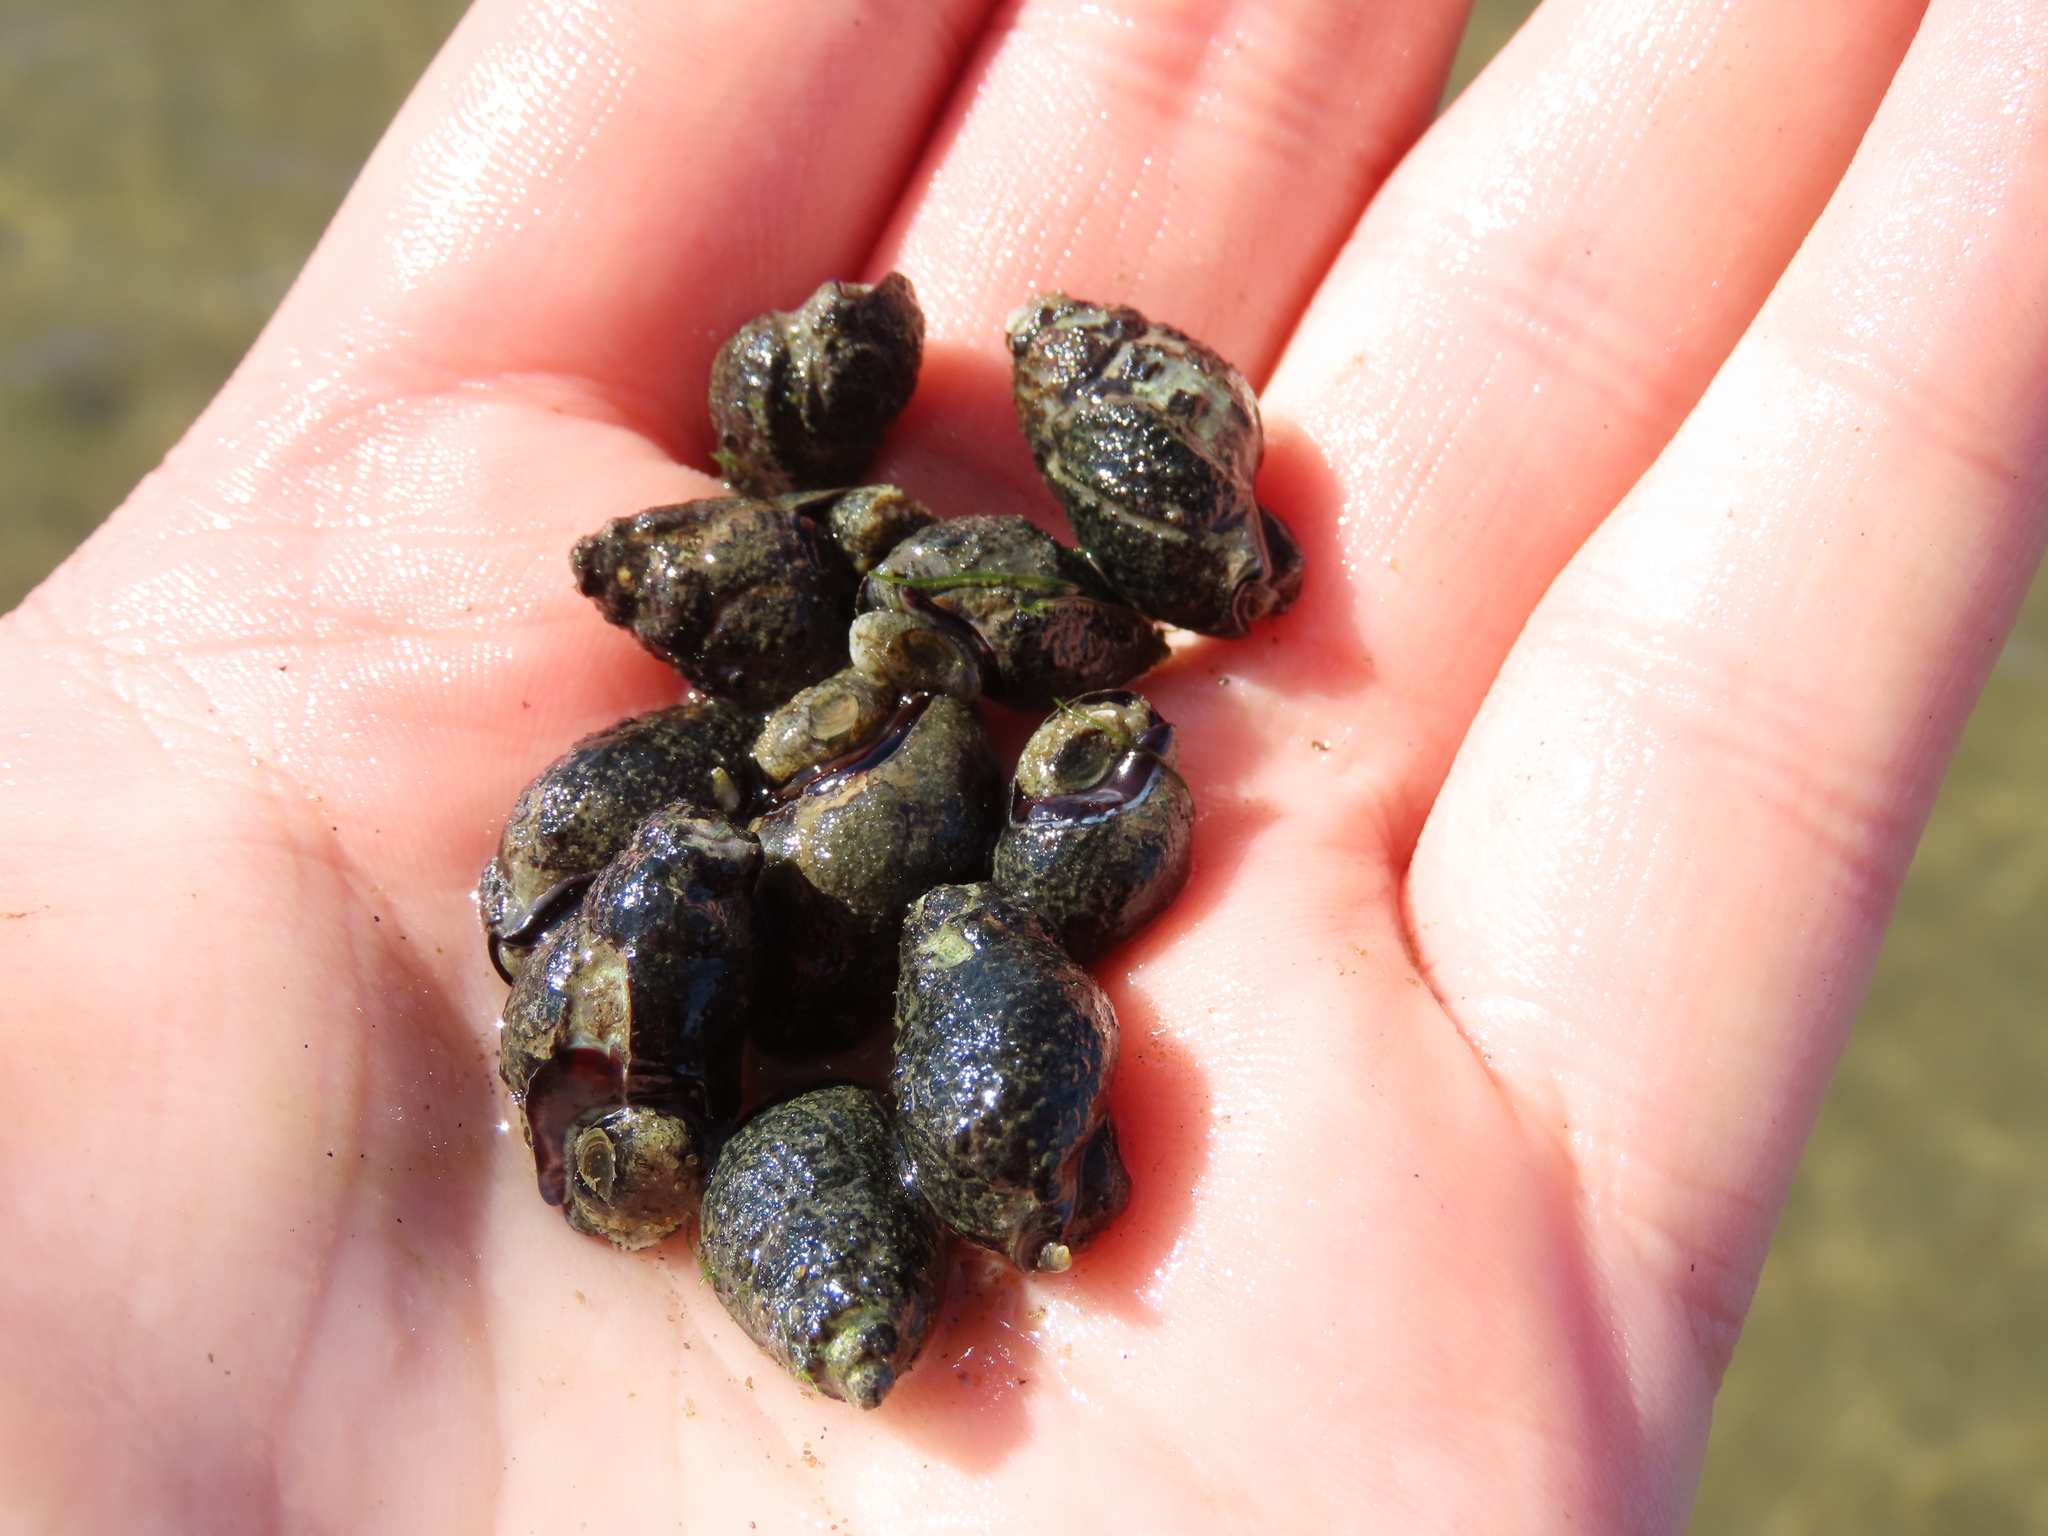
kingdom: Animalia
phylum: Mollusca
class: Gastropoda
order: Neogastropoda
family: Nassariidae
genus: Ilyanassa
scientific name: Ilyanassa obsoleta
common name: Eastern mudsnail
